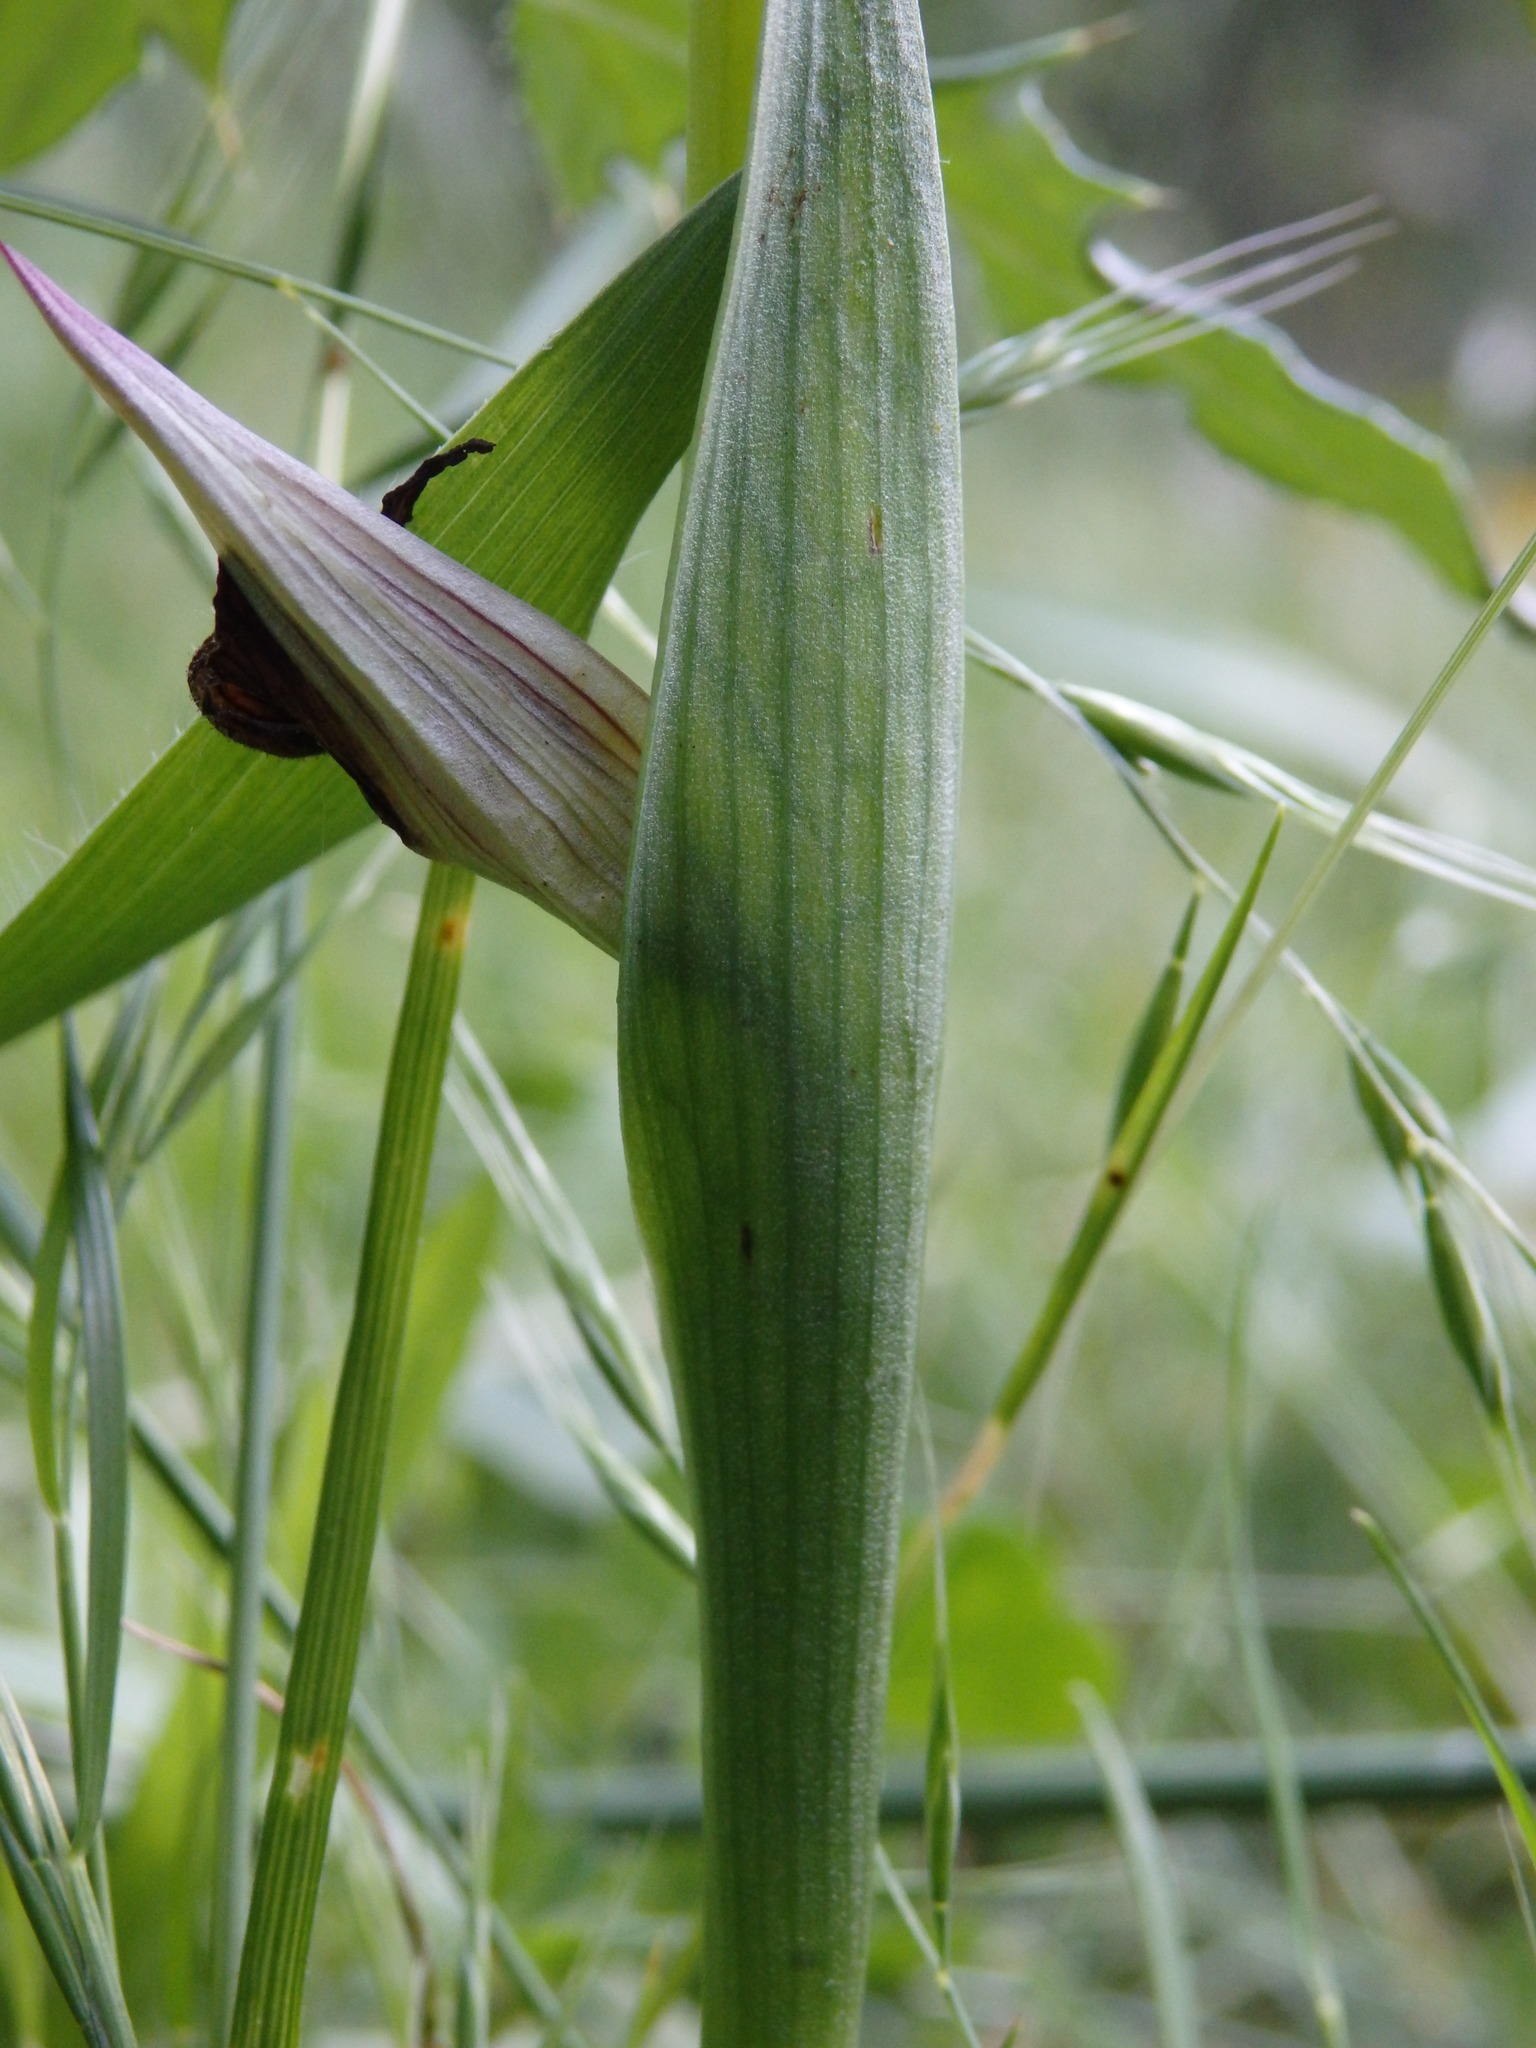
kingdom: Plantae
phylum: Tracheophyta
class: Liliopsida
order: Asparagales
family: Orchidaceae
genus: Serapias
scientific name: Serapias lingua
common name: Tongue-orchid
